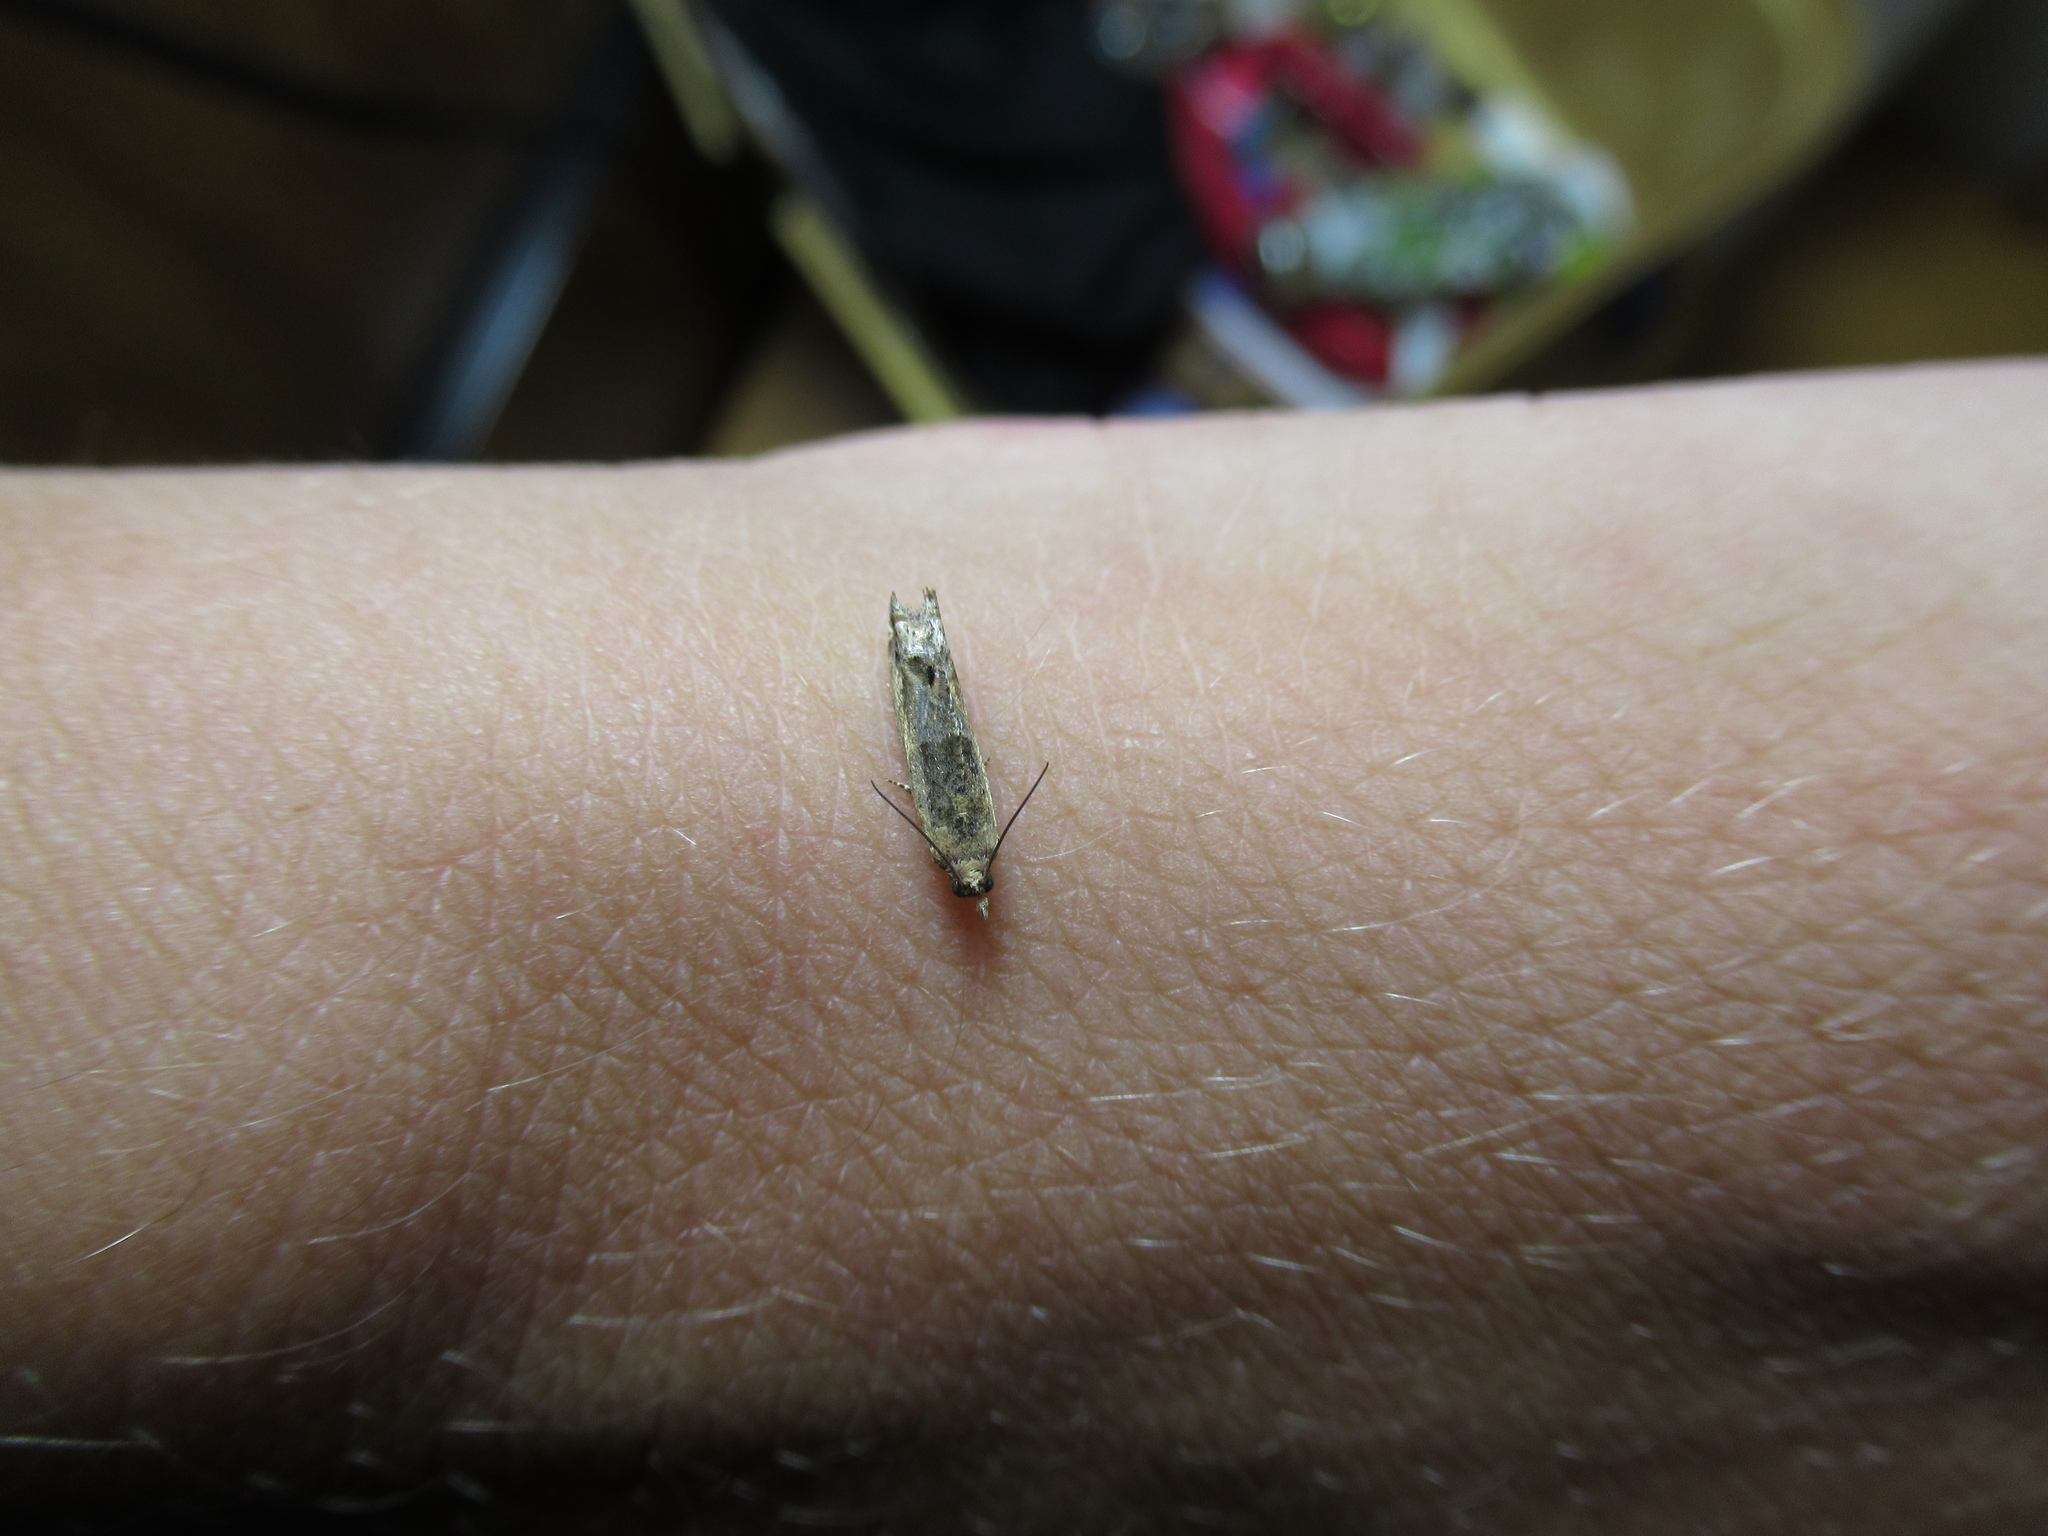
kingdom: Animalia
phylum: Arthropoda
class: Insecta
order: Lepidoptera
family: Tortricidae
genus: Crocidosema
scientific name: Crocidosema plebejana
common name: Southern bell
